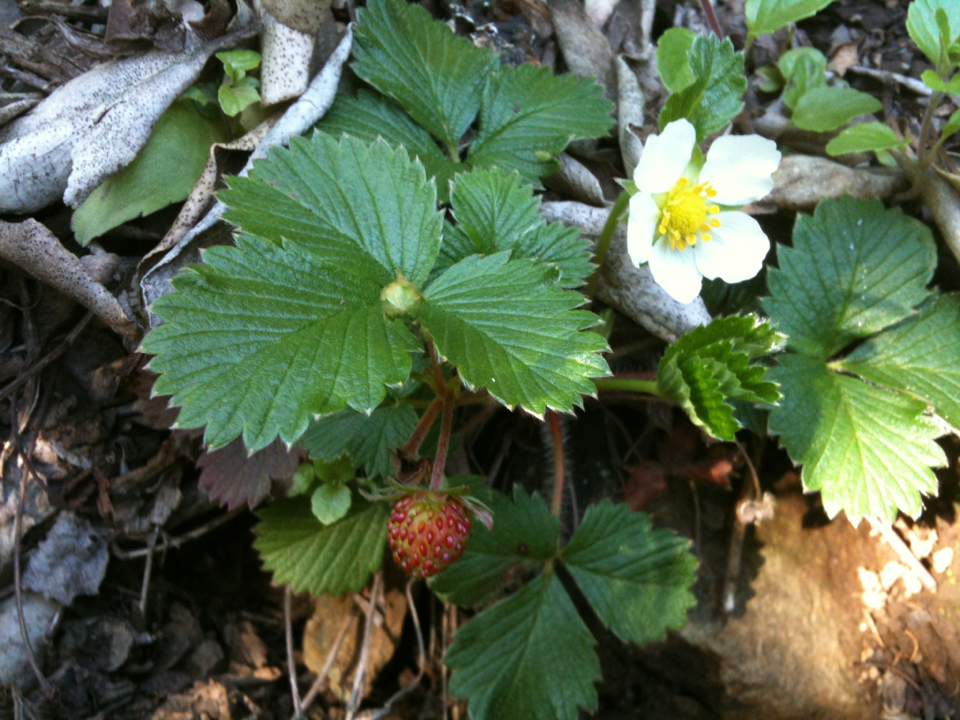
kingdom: Plantae
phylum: Tracheophyta
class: Magnoliopsida
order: Rosales
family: Rosaceae
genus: Fragaria
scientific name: Fragaria vesca
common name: Wild strawberry
